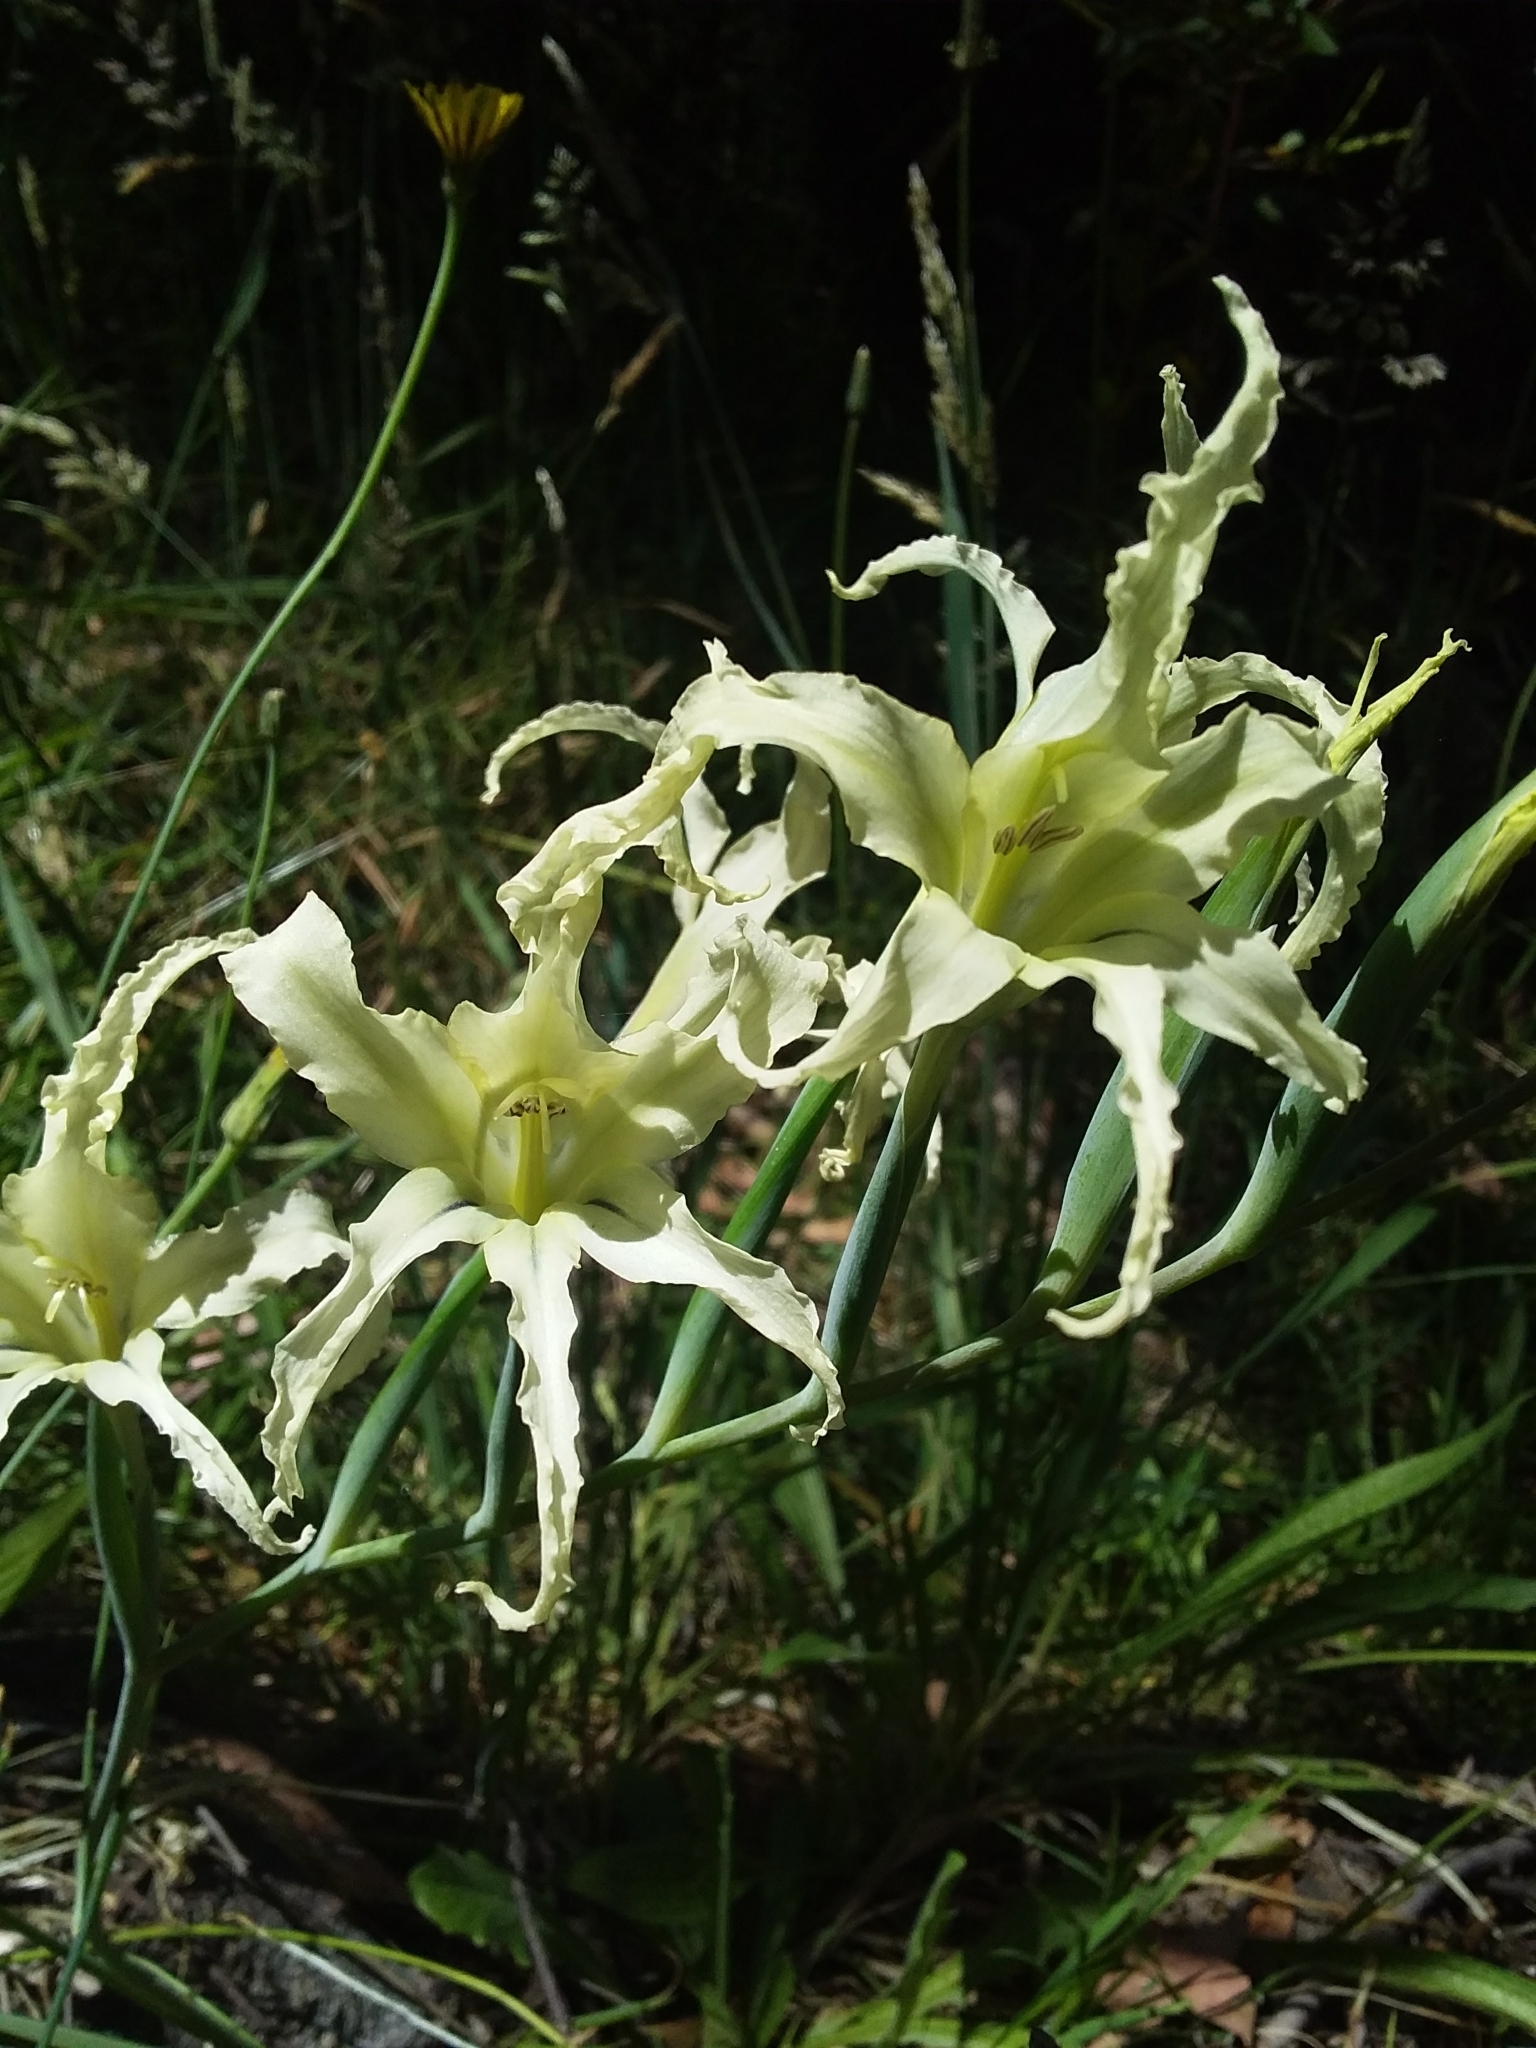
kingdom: Plantae
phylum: Tracheophyta
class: Liliopsida
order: Asparagales
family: Iridaceae
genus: Gladiolus
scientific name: Gladiolus undulatus
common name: Large painted-lady
